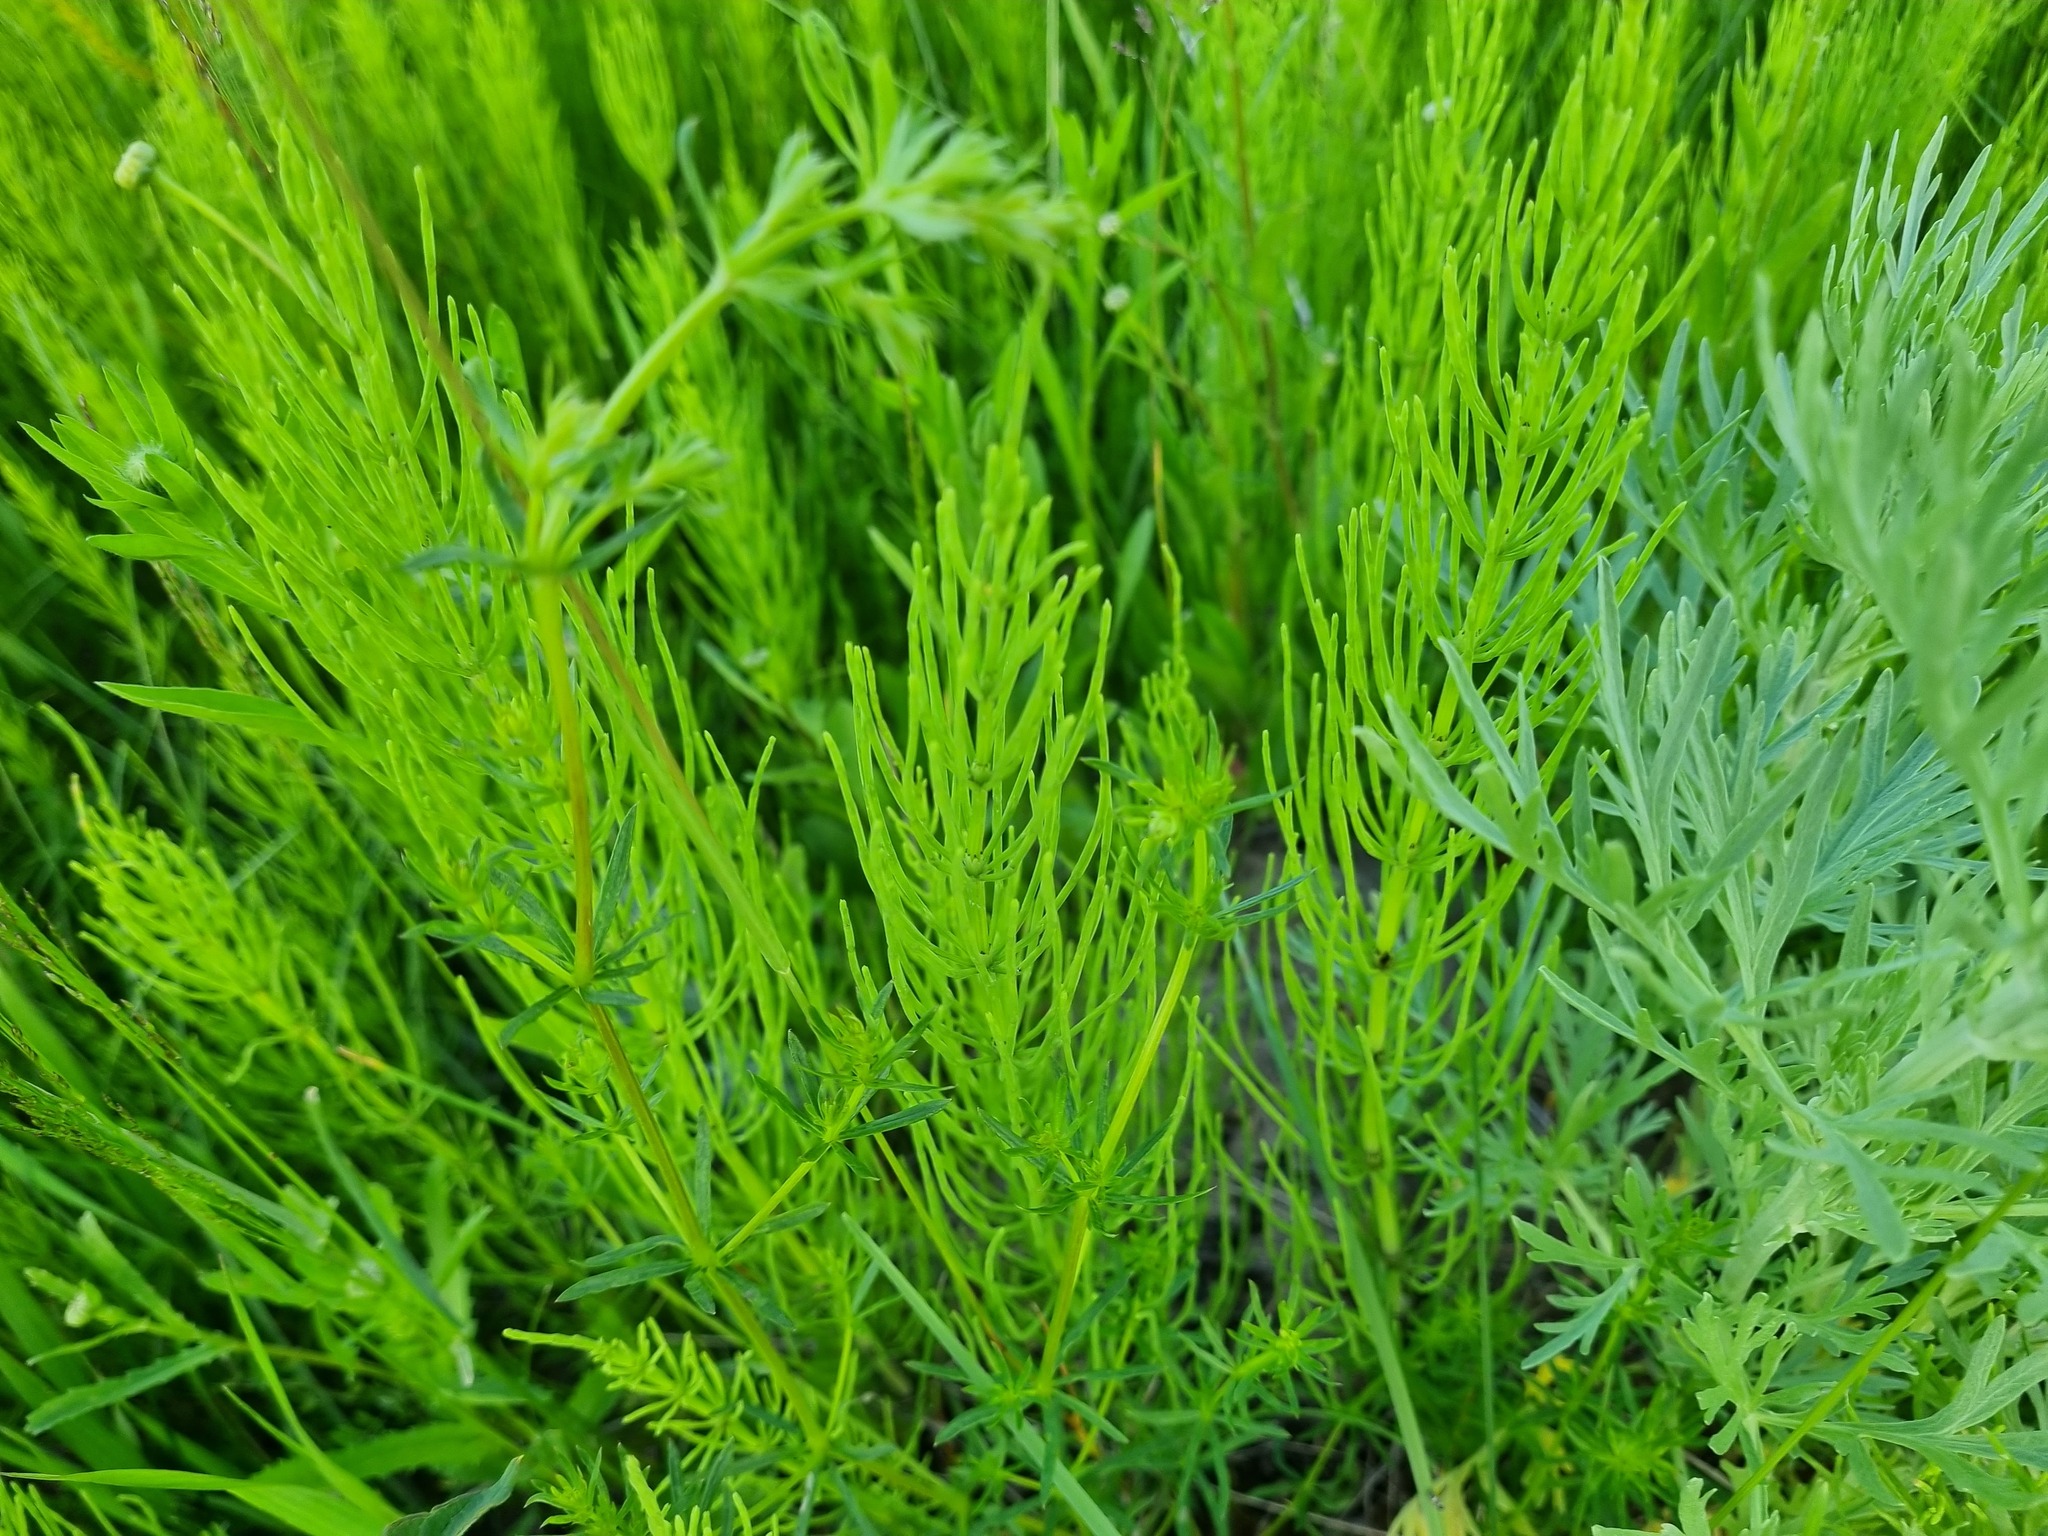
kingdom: Plantae
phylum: Tracheophyta
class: Polypodiopsida
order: Equisetales
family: Equisetaceae
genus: Equisetum
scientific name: Equisetum arvense
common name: Field horsetail
